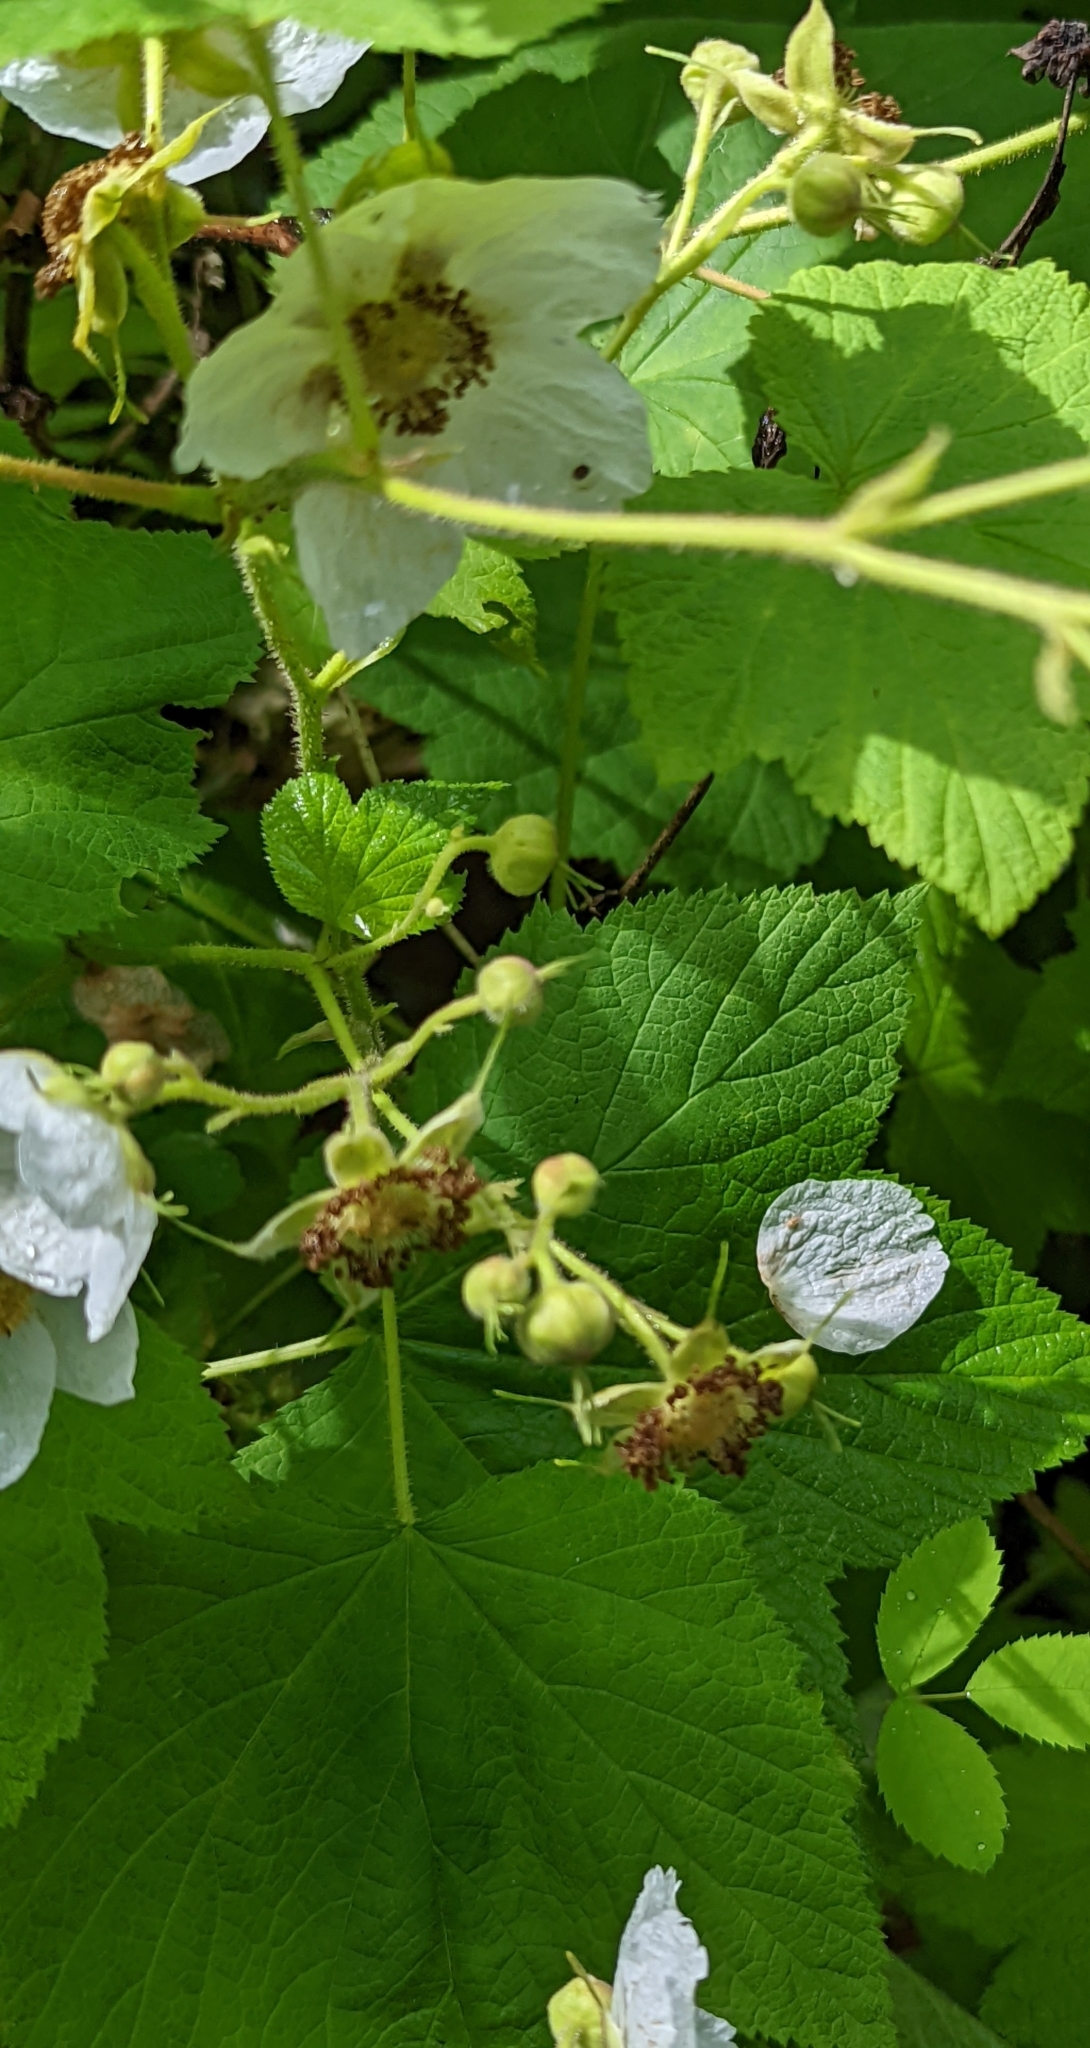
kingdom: Plantae
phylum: Tracheophyta
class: Magnoliopsida
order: Rosales
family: Rosaceae
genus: Rubus
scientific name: Rubus parviflorus
